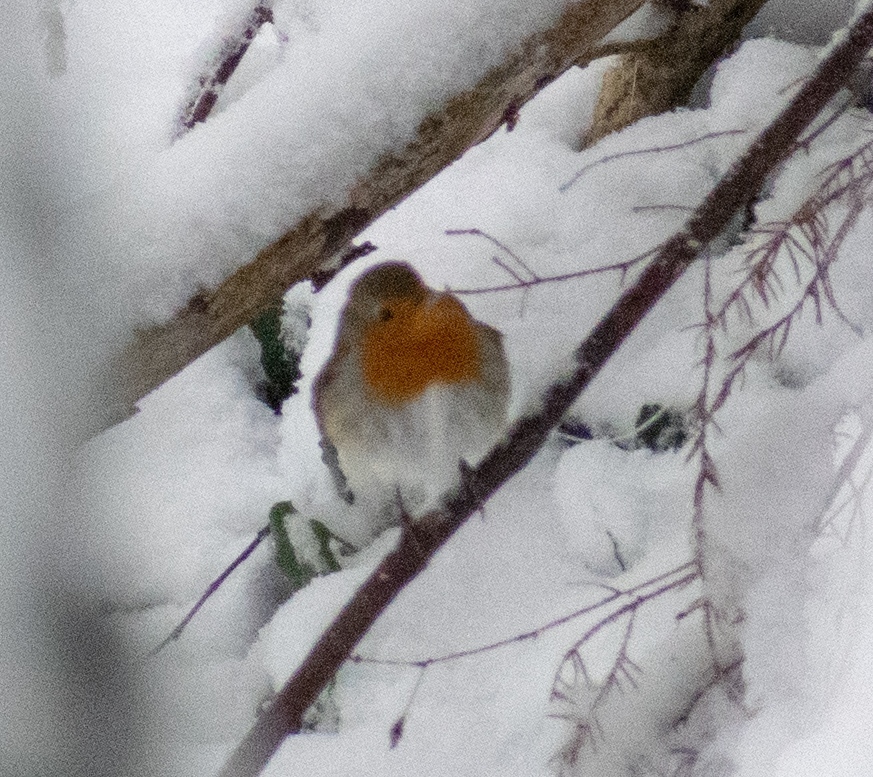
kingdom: Animalia
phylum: Chordata
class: Aves
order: Passeriformes
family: Muscicapidae
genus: Erithacus
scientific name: Erithacus rubecula
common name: European robin
